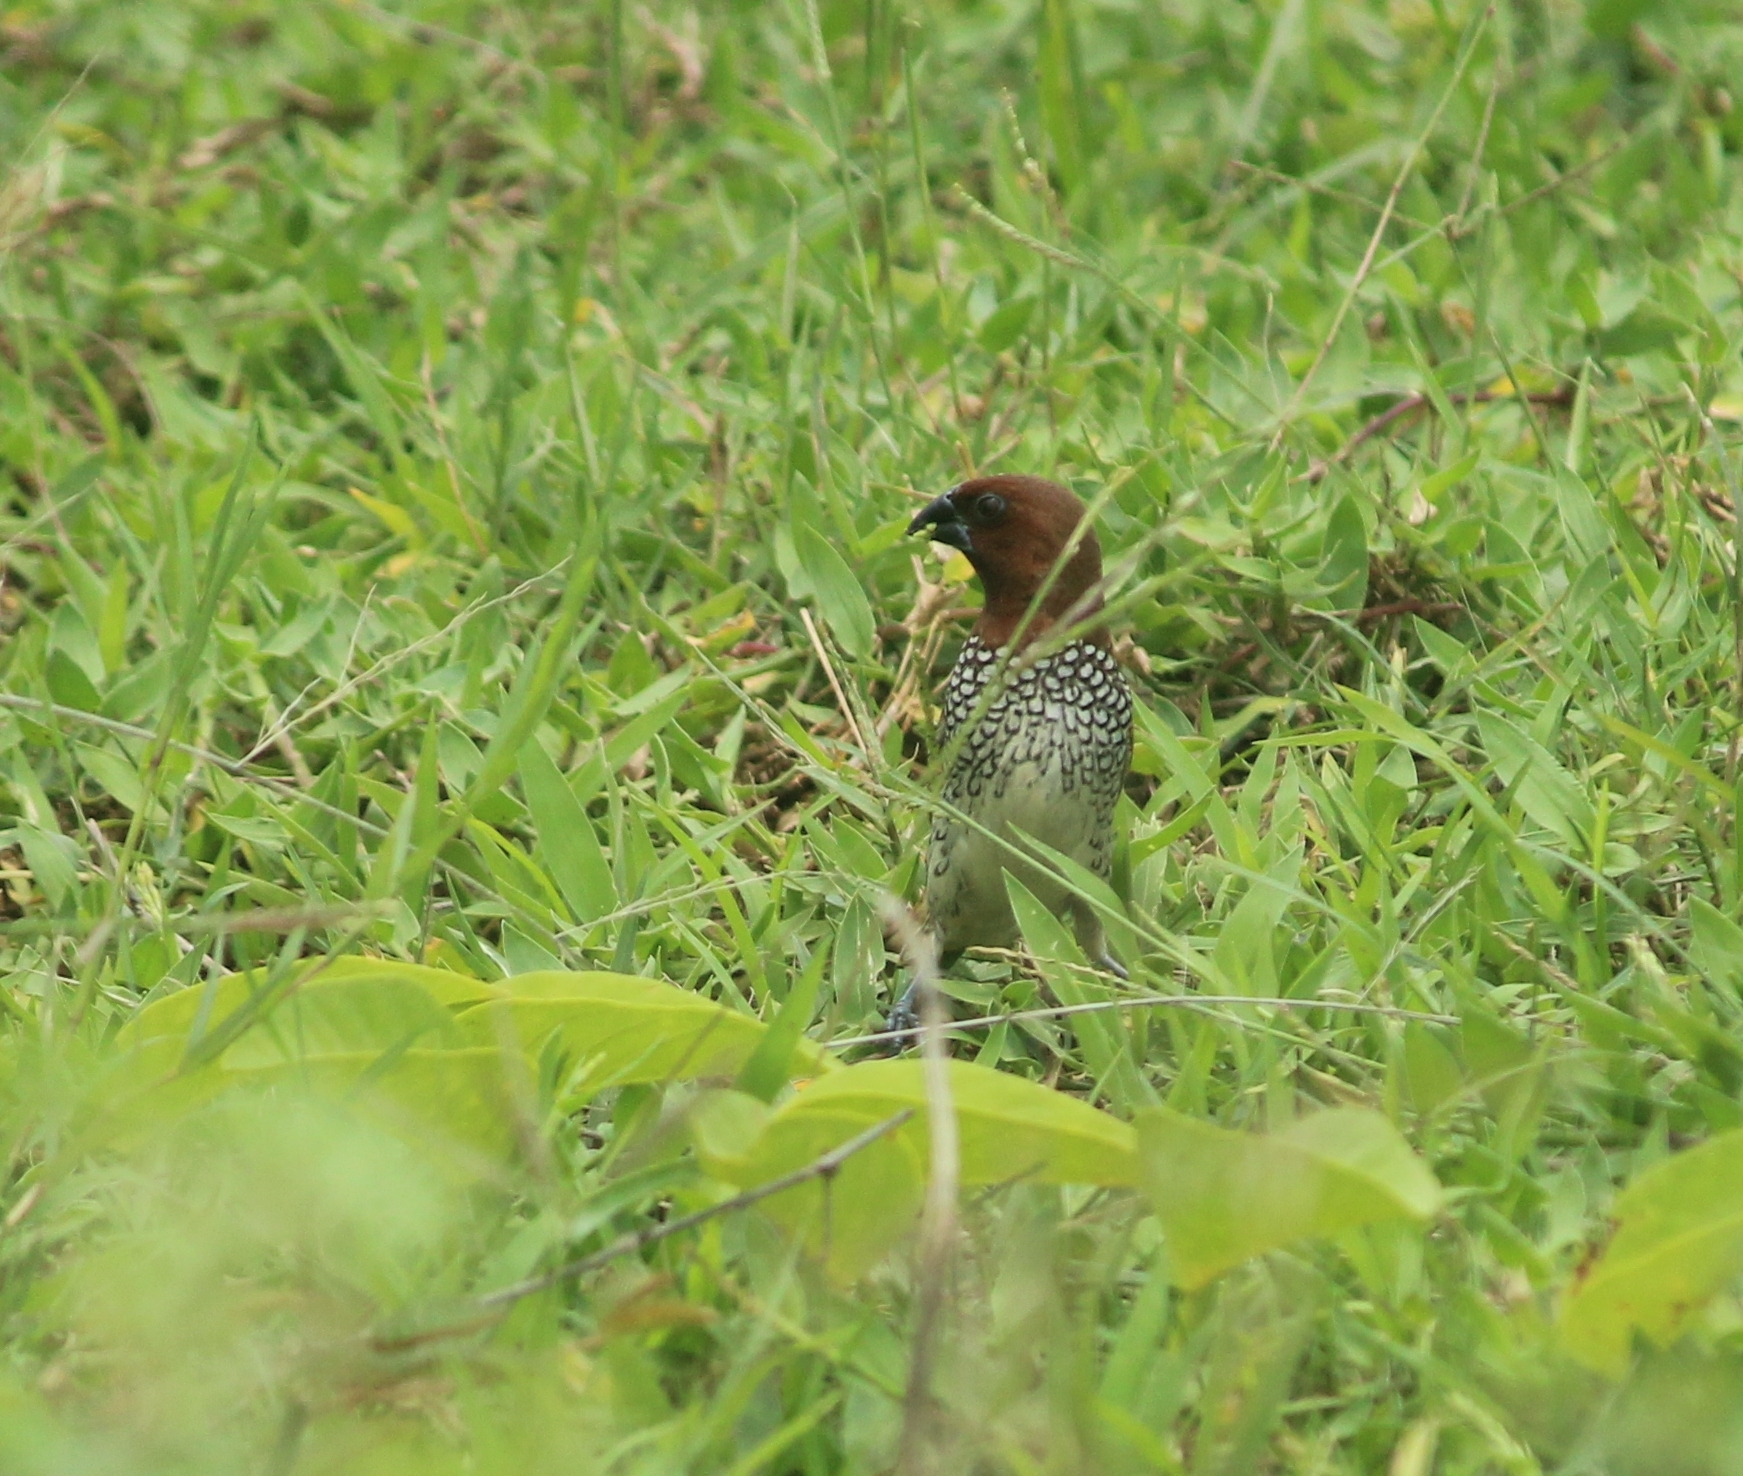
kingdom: Animalia
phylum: Chordata
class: Aves
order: Passeriformes
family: Estrildidae
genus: Lonchura
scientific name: Lonchura punctulata
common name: Scaly-breasted munia
